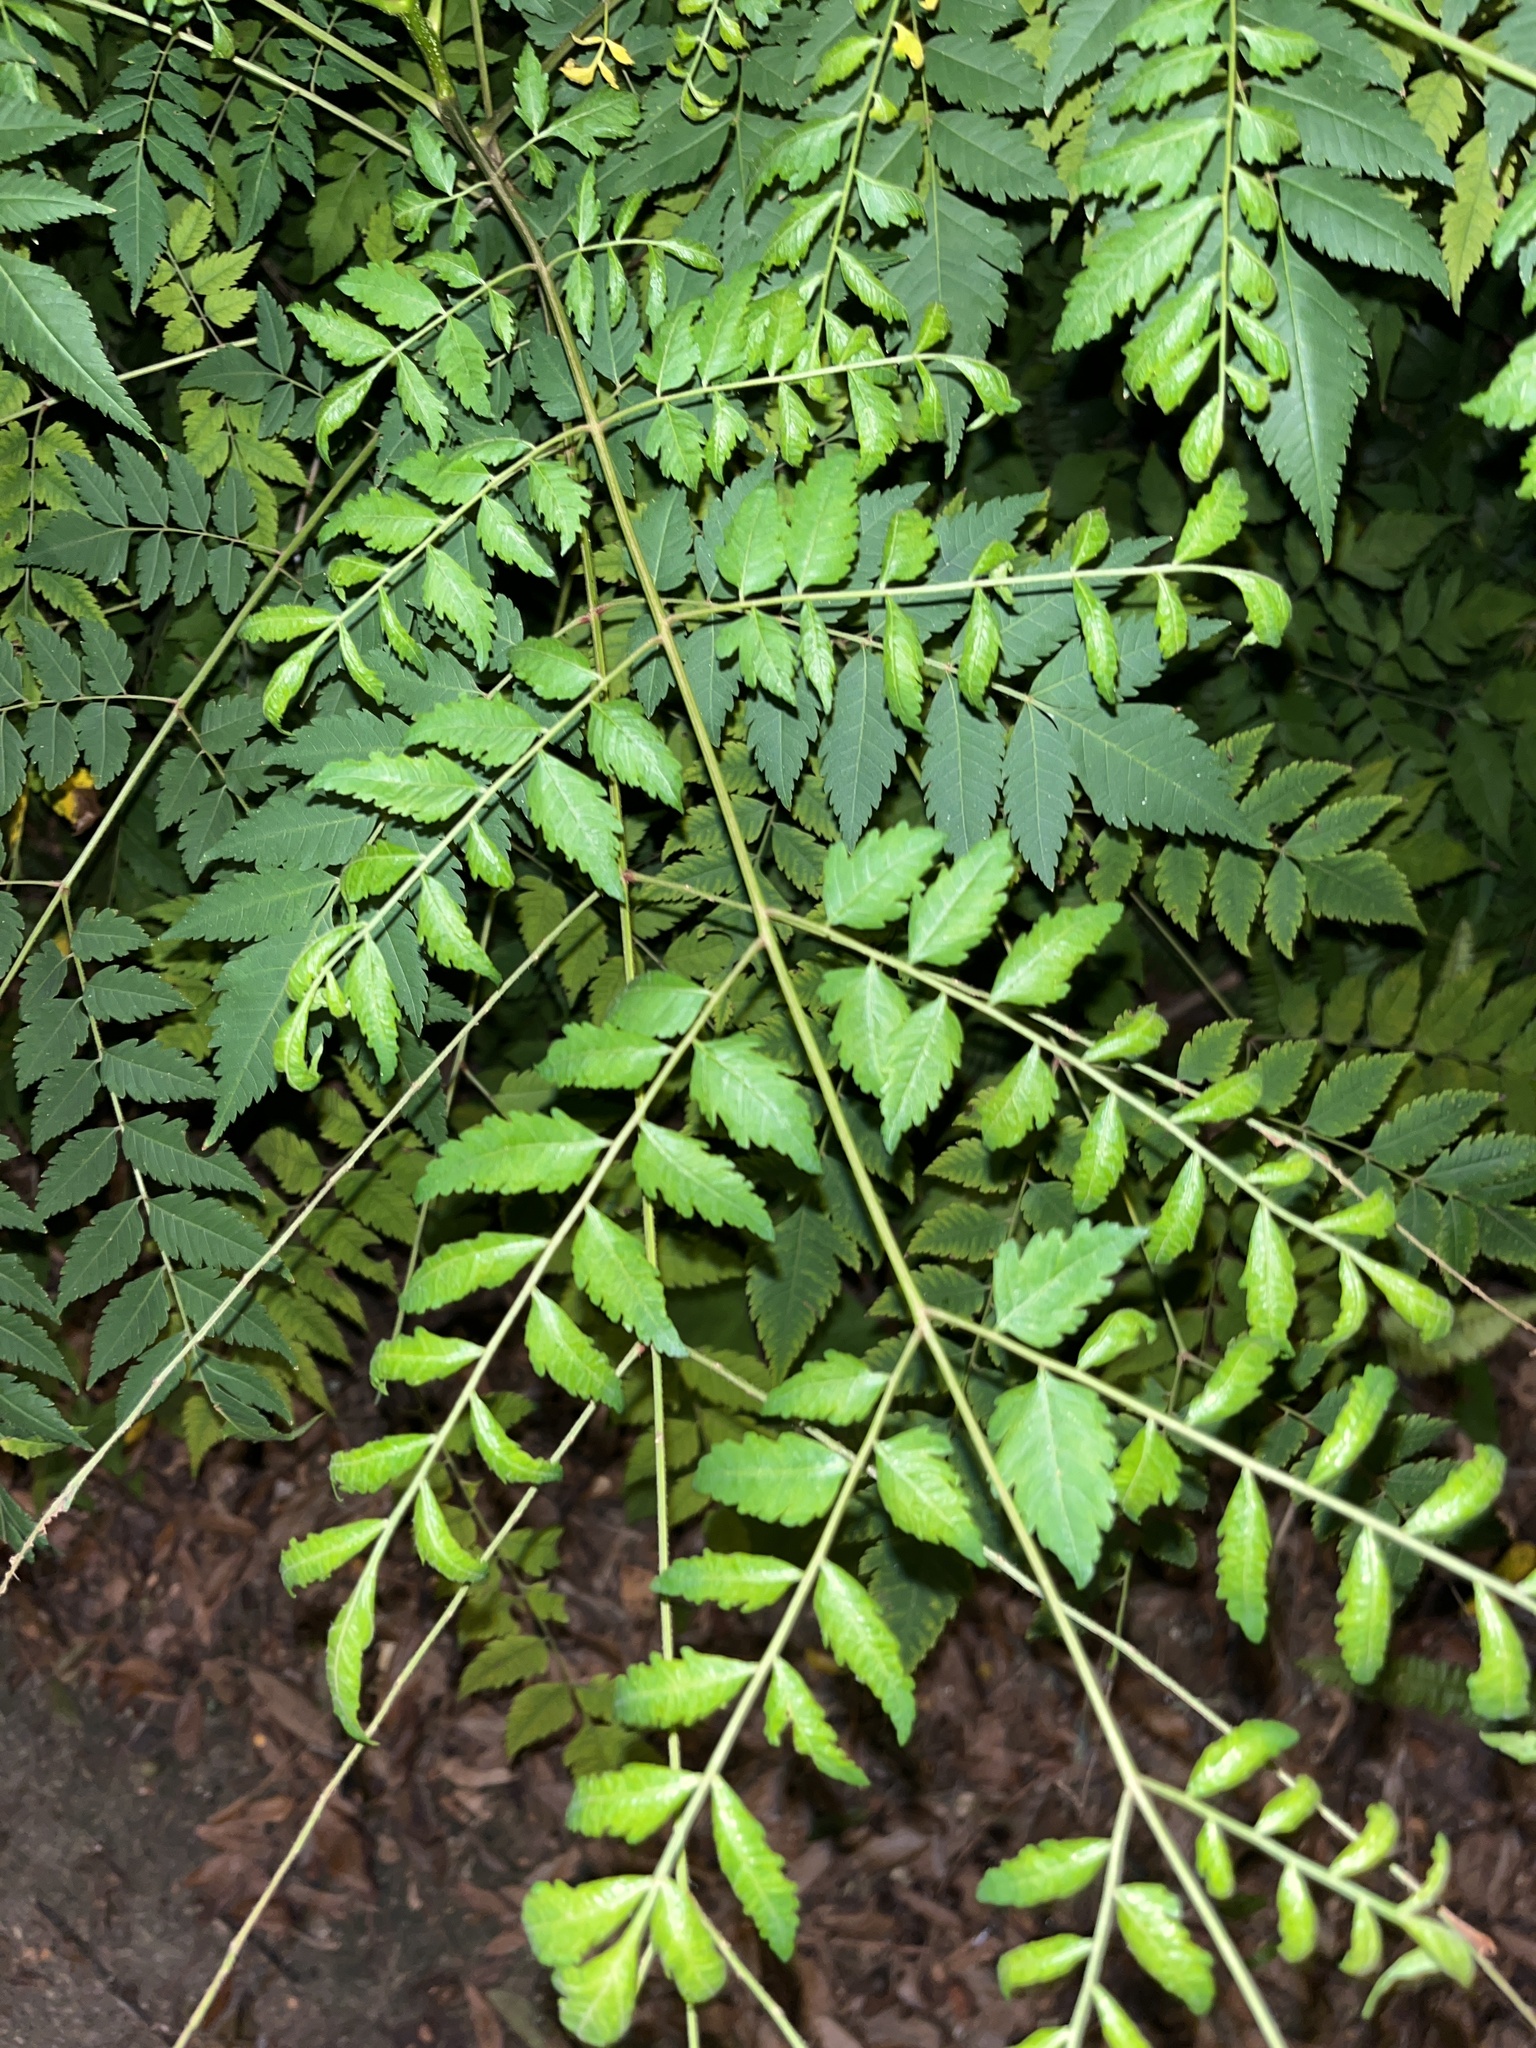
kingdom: Plantae
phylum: Tracheophyta
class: Magnoliopsida
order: Sapindales
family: Sapindaceae
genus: Koelreuteria
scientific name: Koelreuteria elegans
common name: Chinese flame tree
